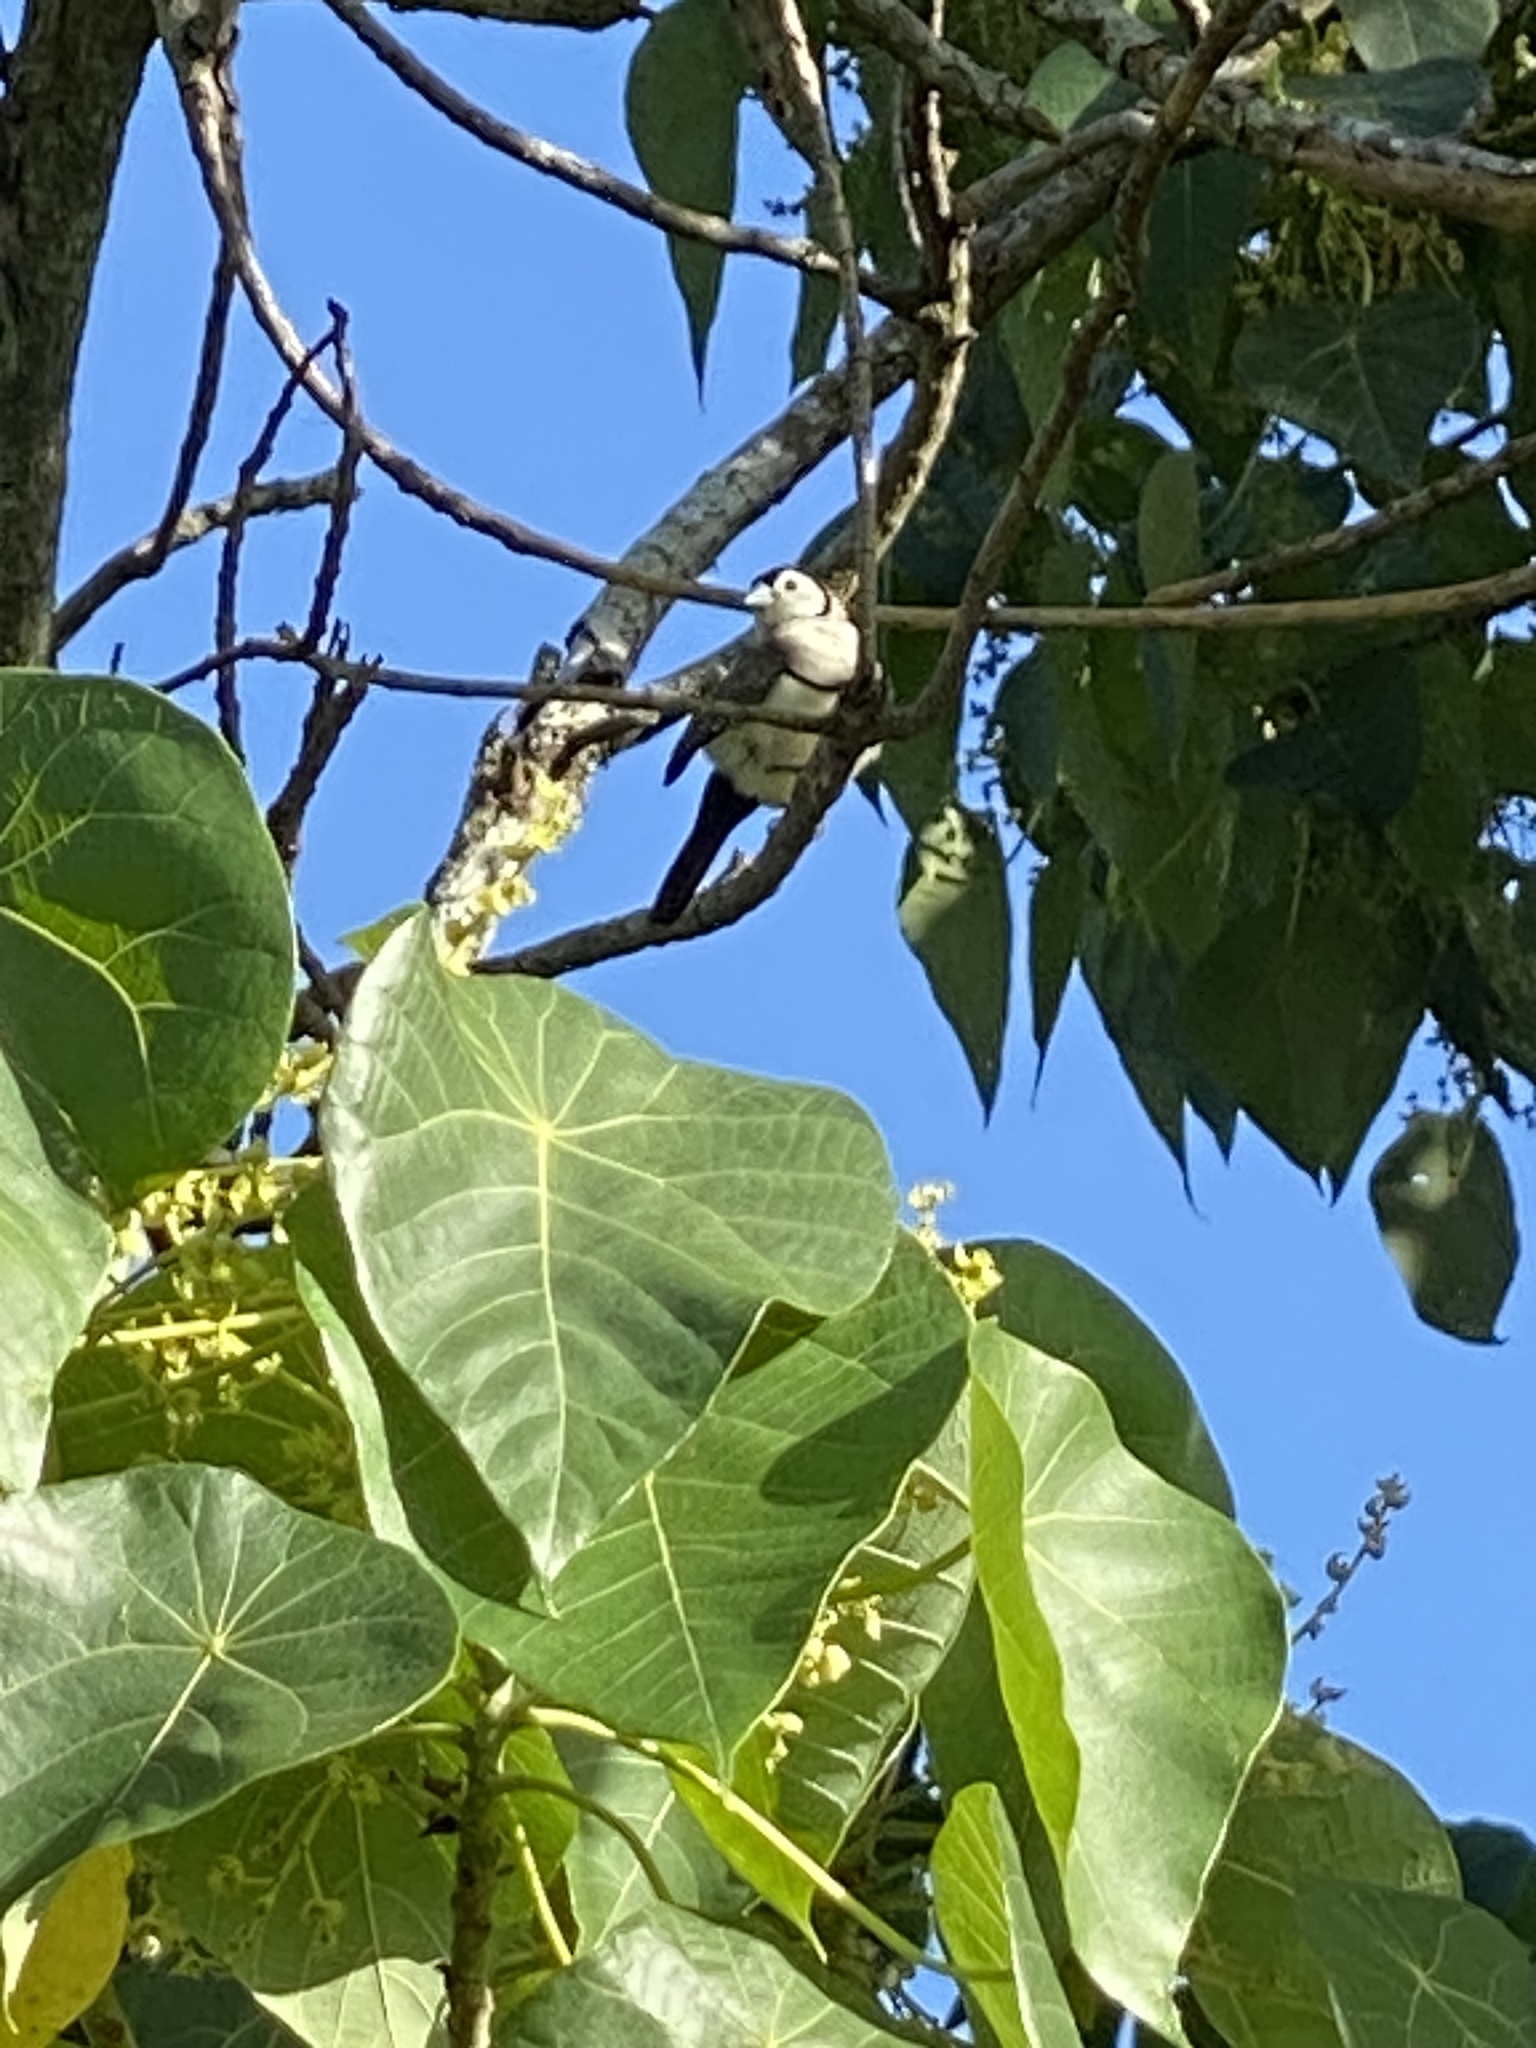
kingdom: Animalia
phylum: Chordata
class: Aves
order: Passeriformes
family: Estrildidae
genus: Taeniopygia
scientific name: Taeniopygia bichenovii
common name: Double-barred finch
